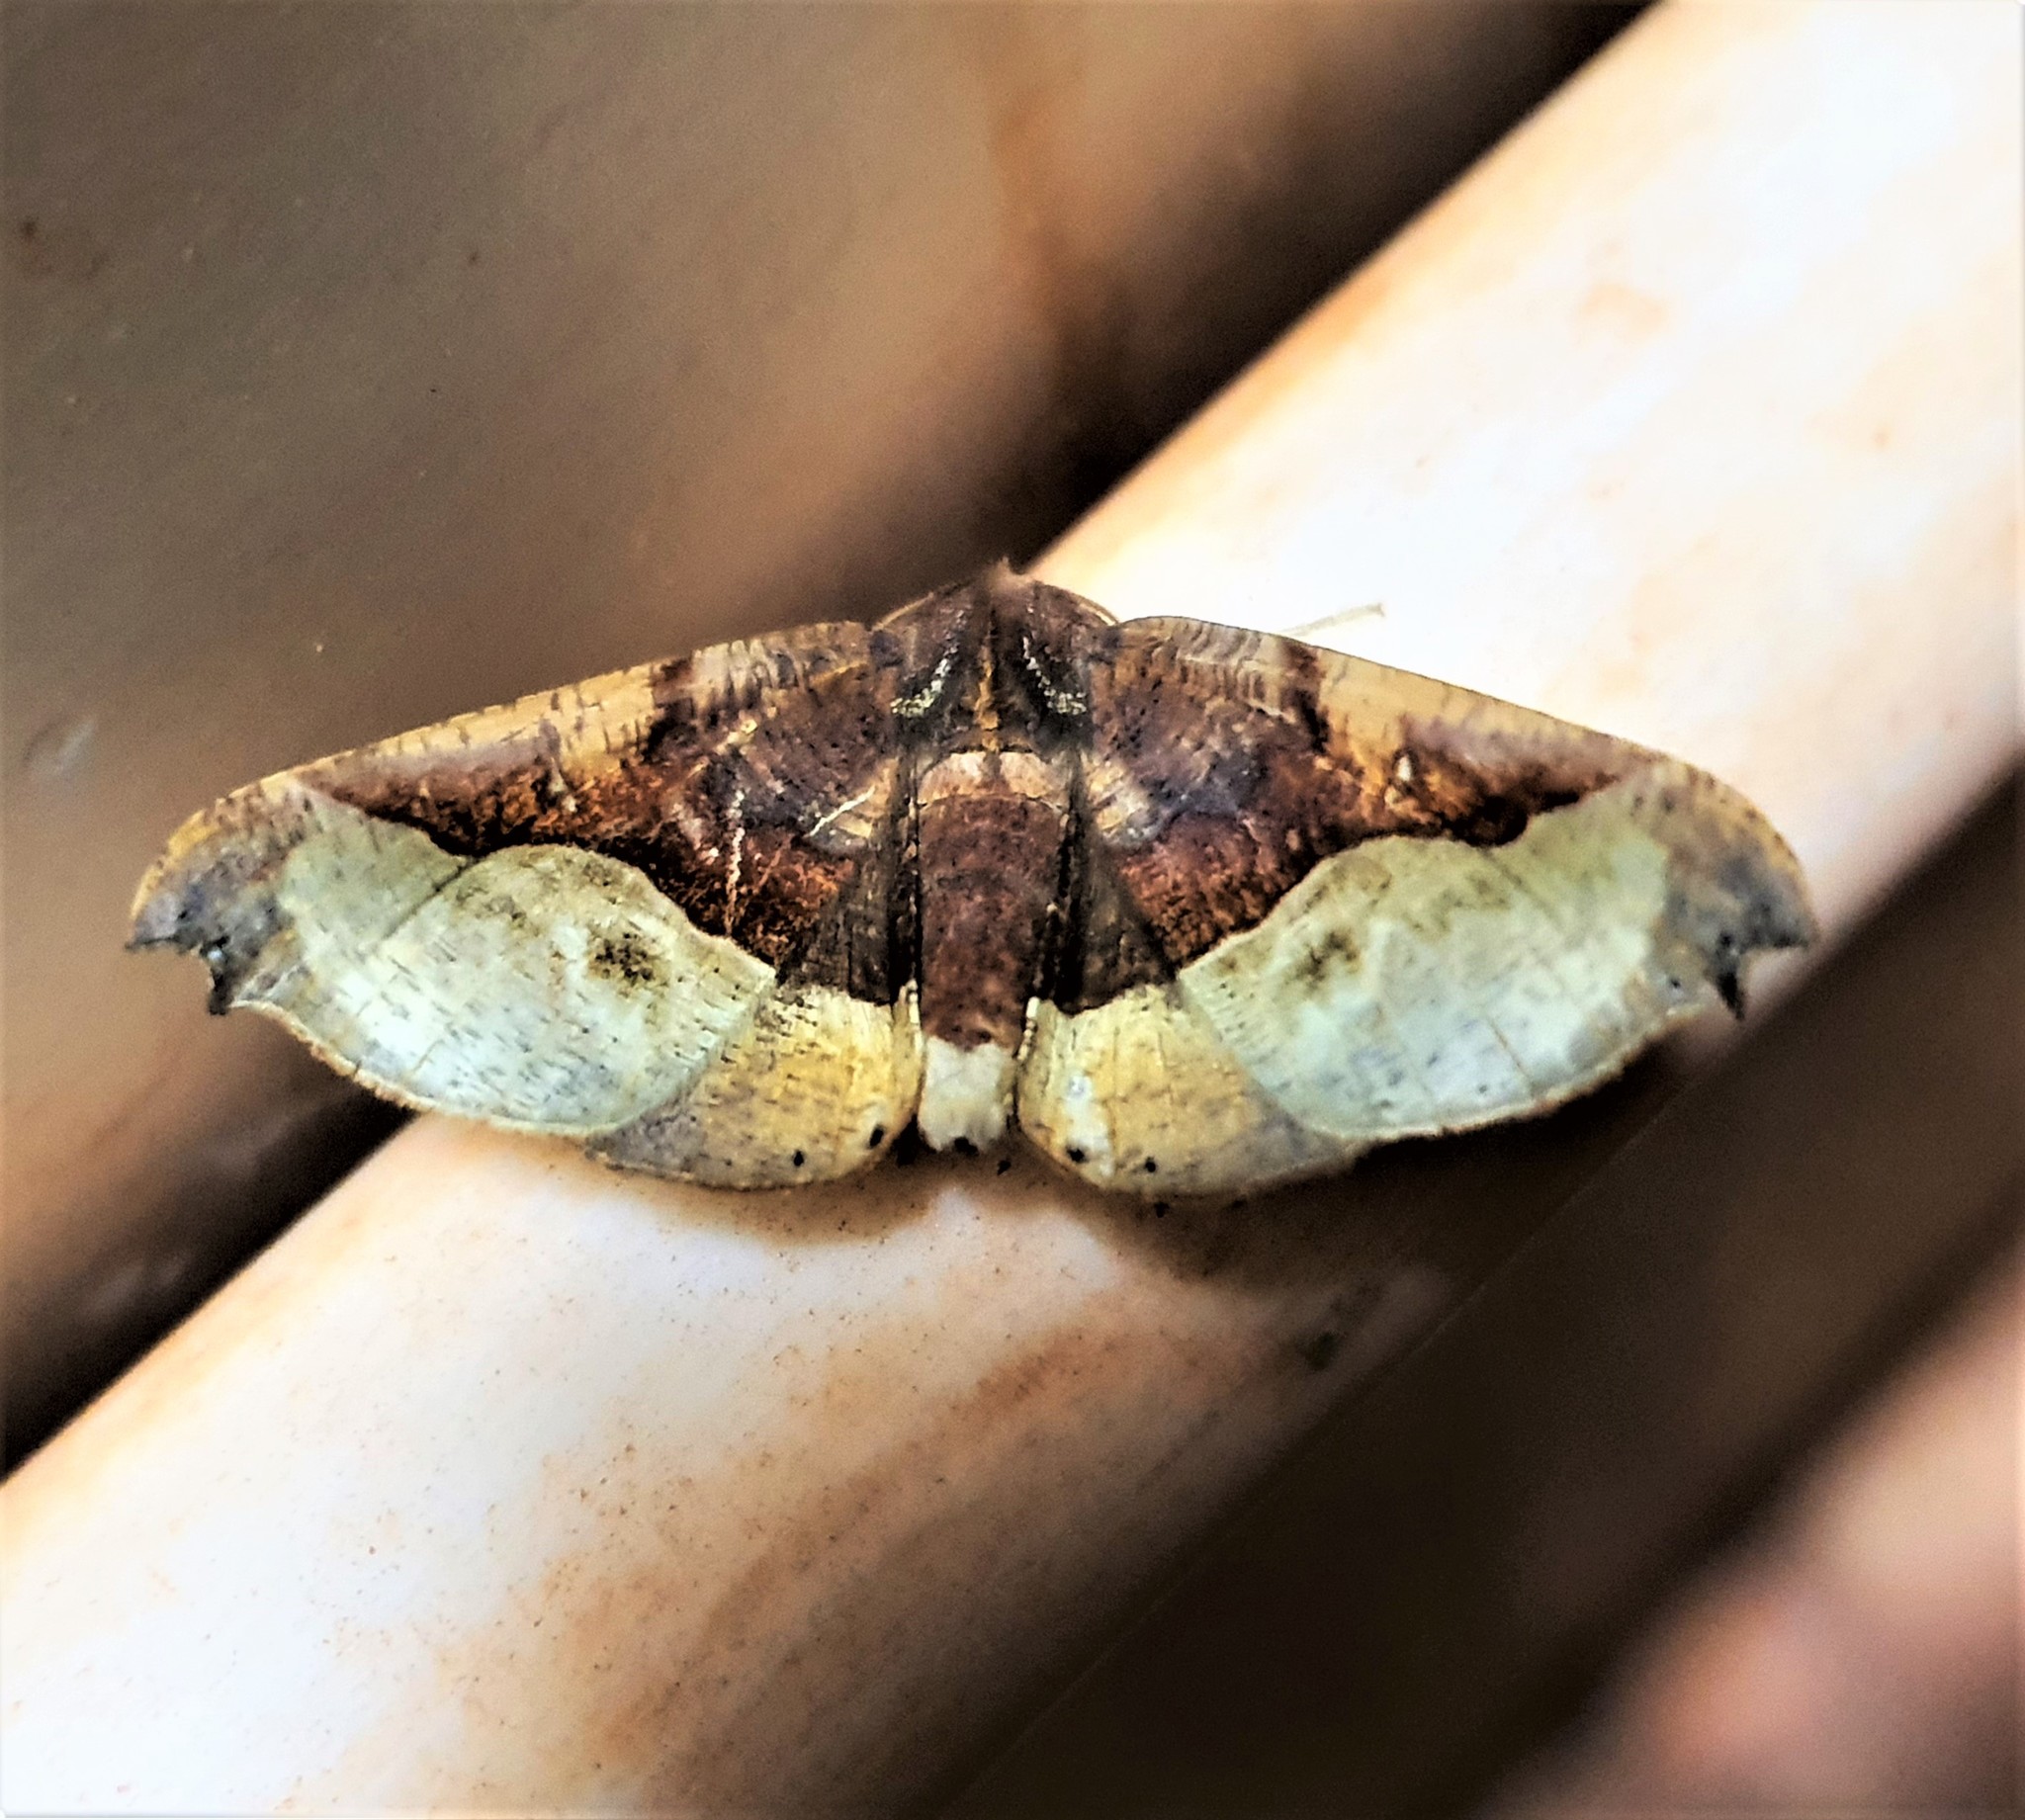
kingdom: Animalia
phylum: Arthropoda
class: Insecta
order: Lepidoptera
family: Geometridae
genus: Pero
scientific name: Pero mathanaria
